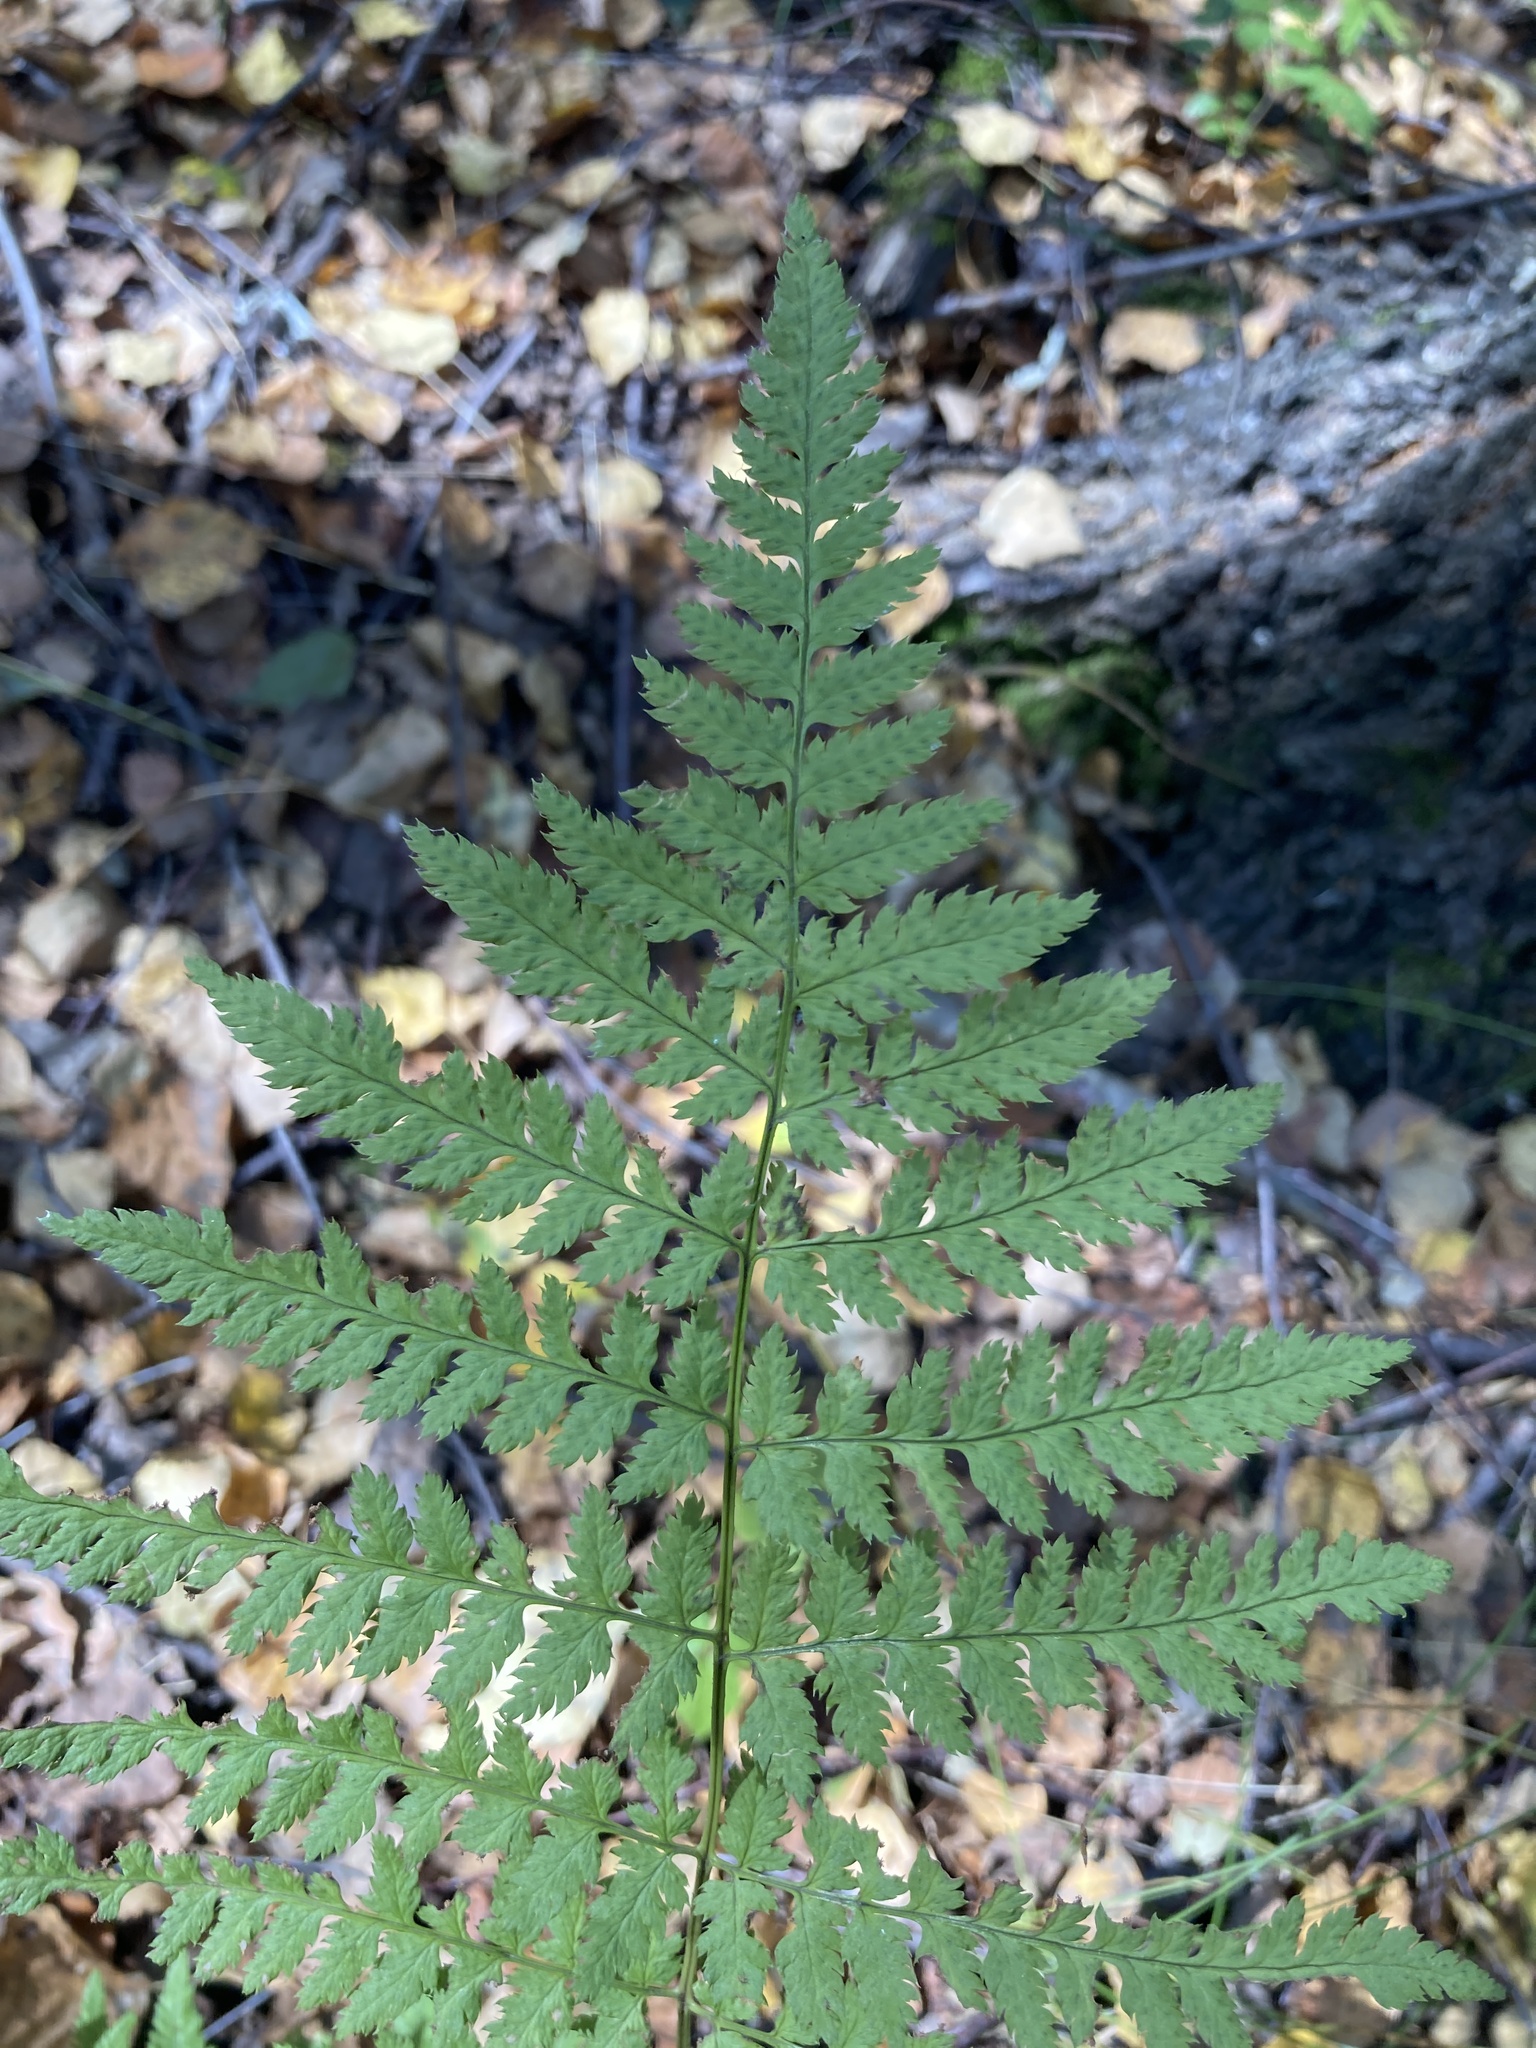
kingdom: Plantae
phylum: Tracheophyta
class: Polypodiopsida
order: Polypodiales
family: Dryopteridaceae
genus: Dryopteris
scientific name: Dryopteris carthusiana
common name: Narrow buckler-fern
